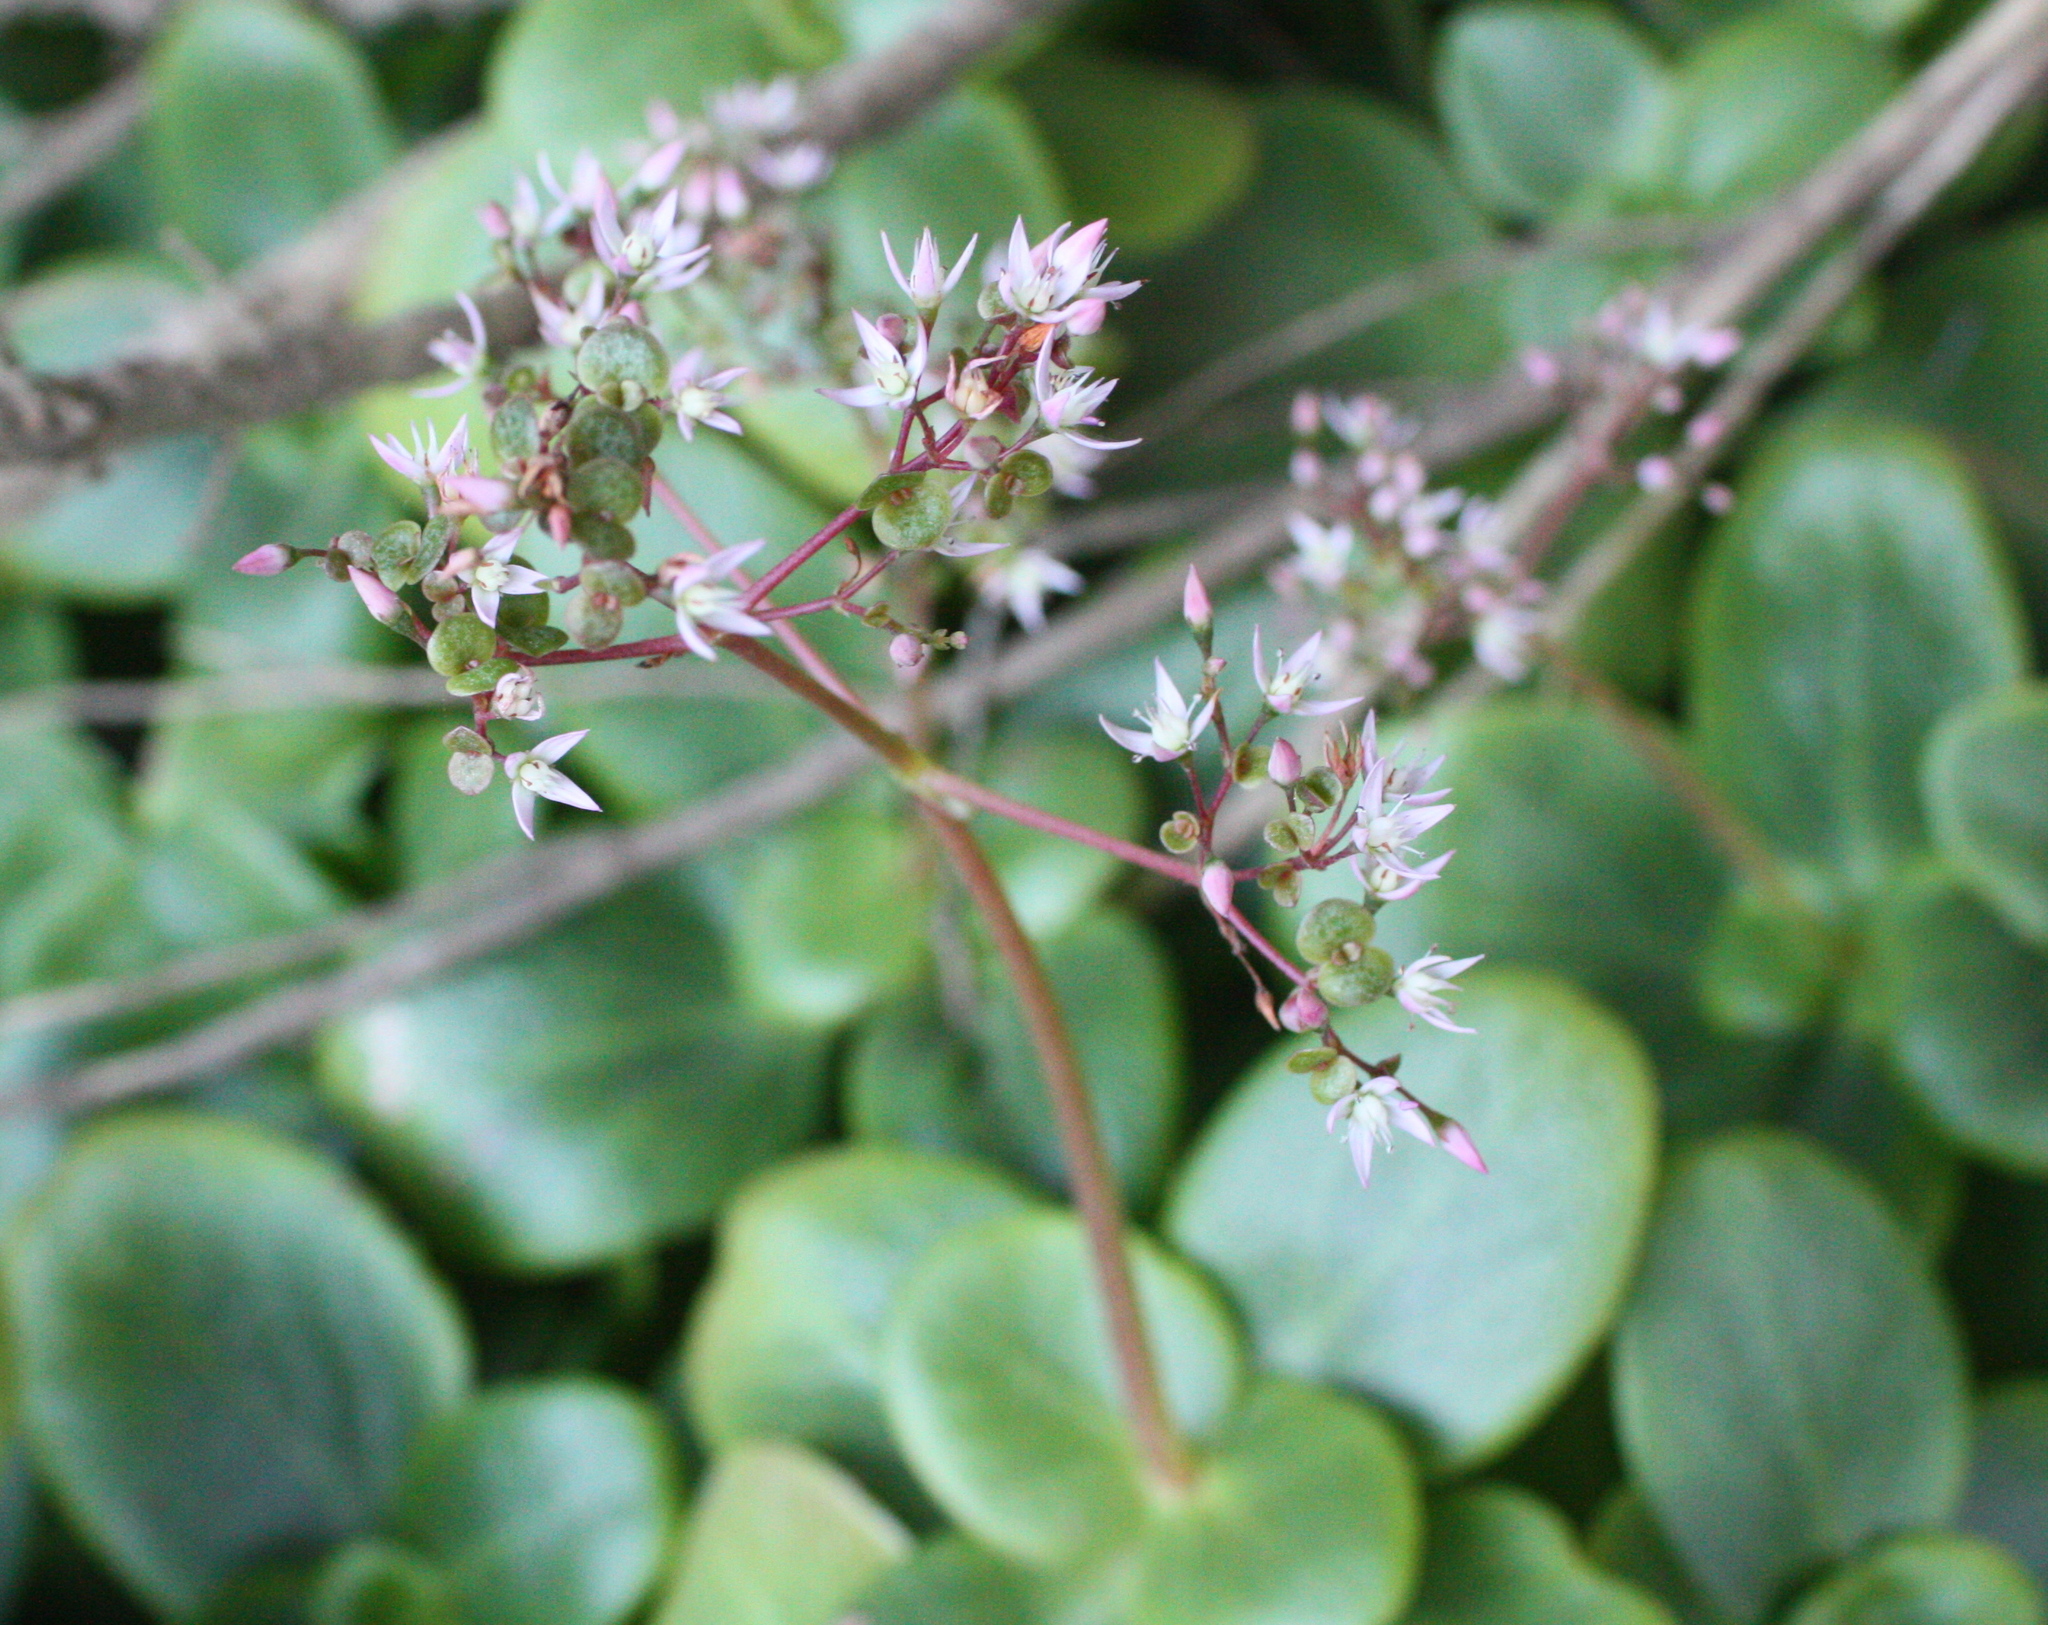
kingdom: Plantae
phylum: Tracheophyta
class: Magnoliopsida
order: Saxifragales
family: Crassulaceae
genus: Crassula
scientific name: Crassula multicava
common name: Cape province pygmyweed
